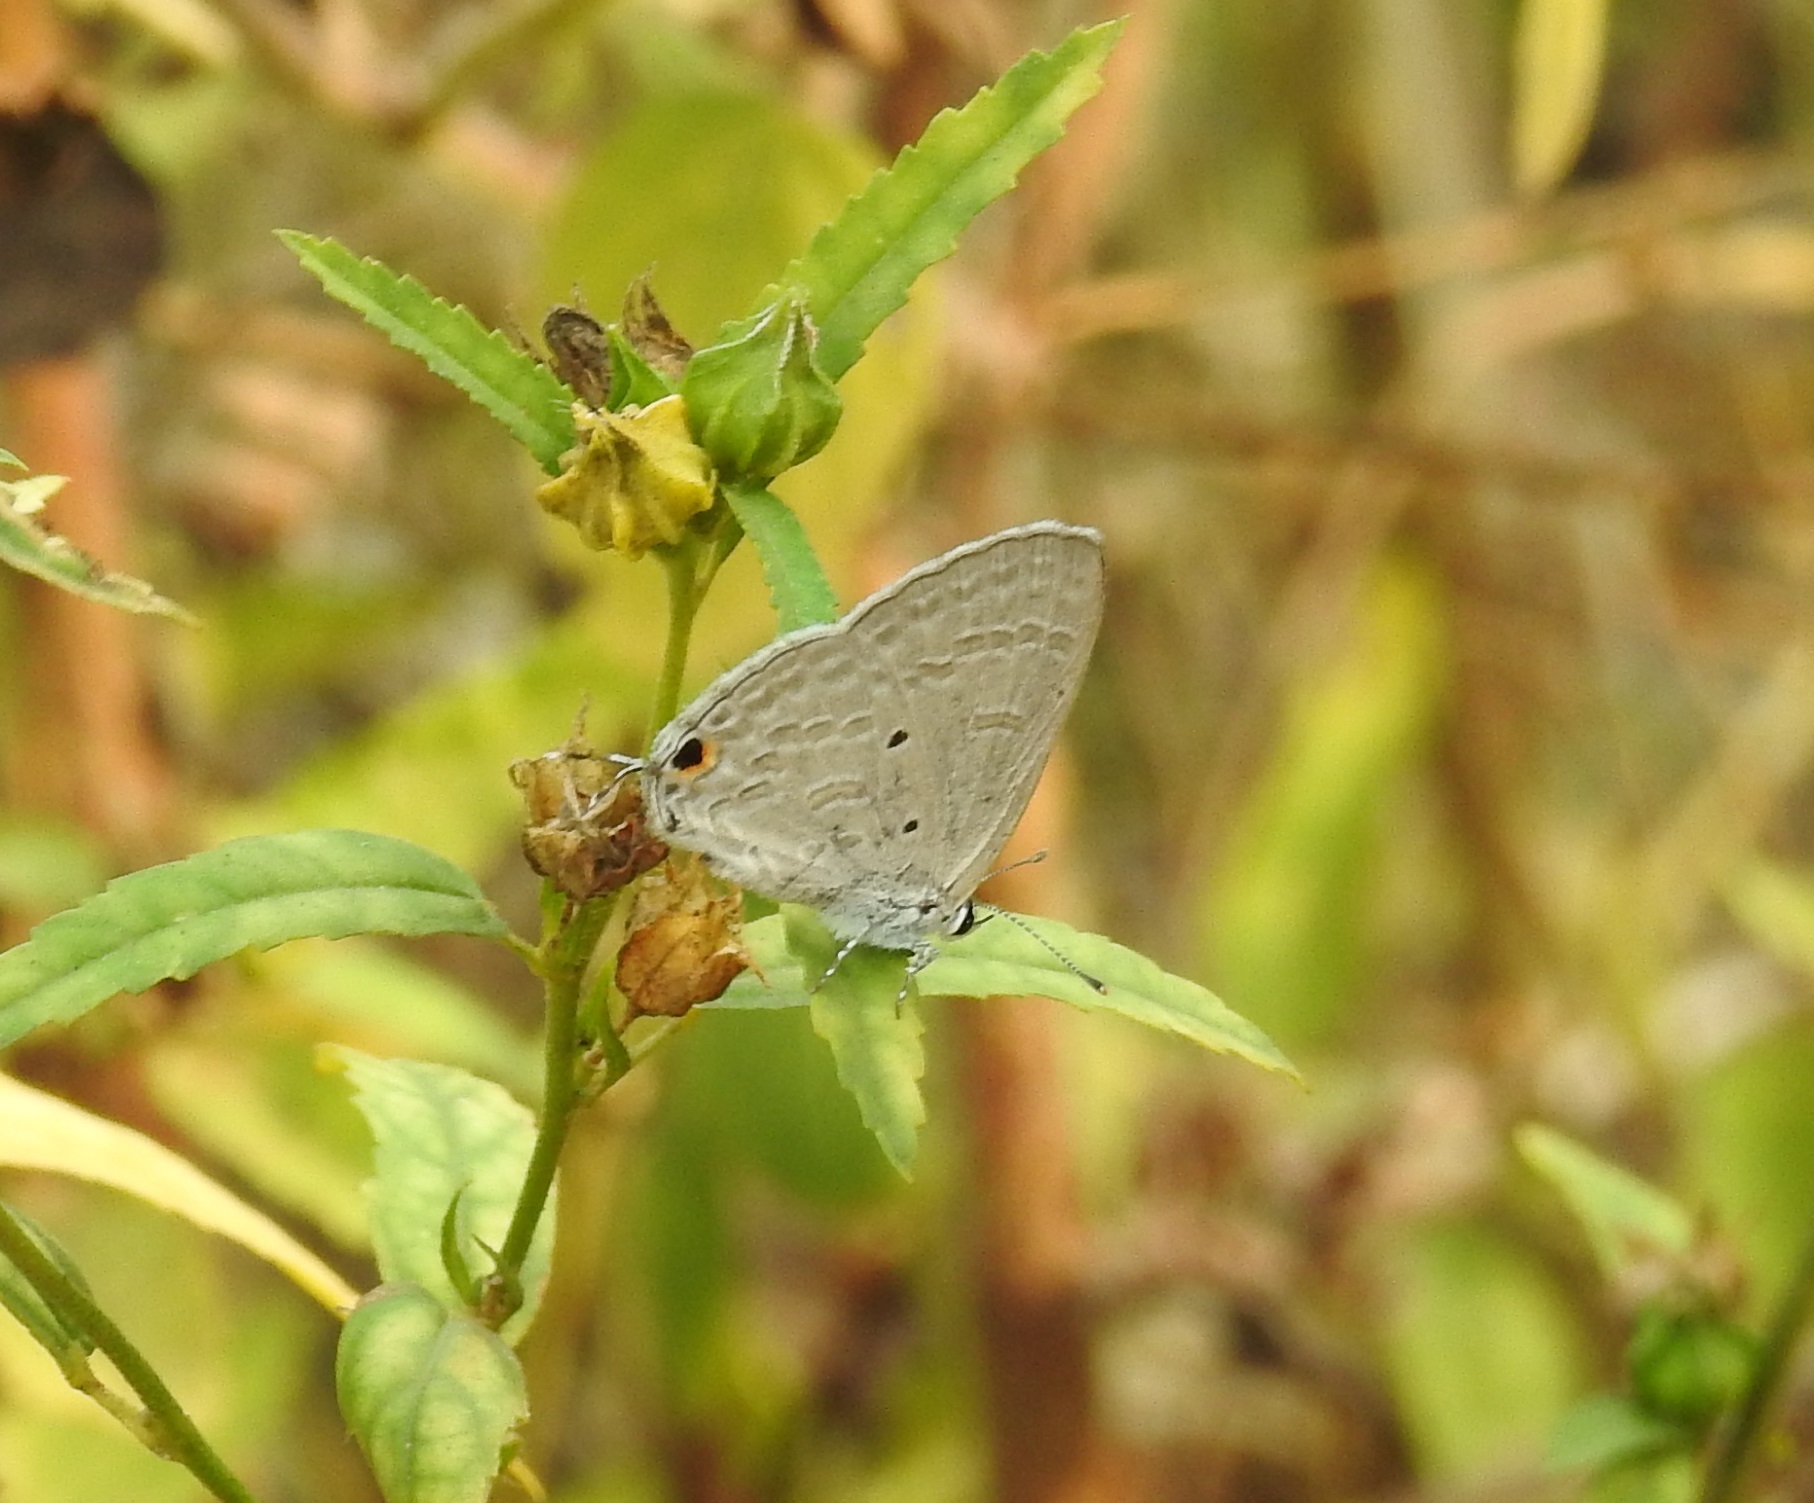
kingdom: Animalia
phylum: Arthropoda
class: Insecta
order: Lepidoptera
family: Lycaenidae
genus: Catochrysops
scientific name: Catochrysops strabo
